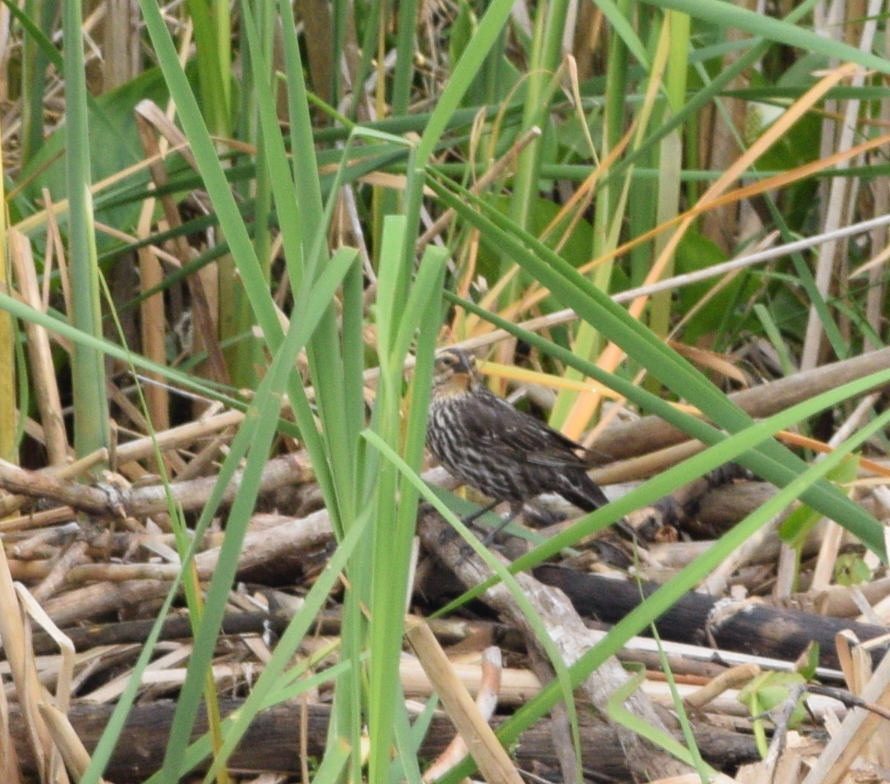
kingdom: Animalia
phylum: Chordata
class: Aves
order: Passeriformes
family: Icteridae
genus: Agelaius
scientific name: Agelaius phoeniceus
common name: Red-winged blackbird
